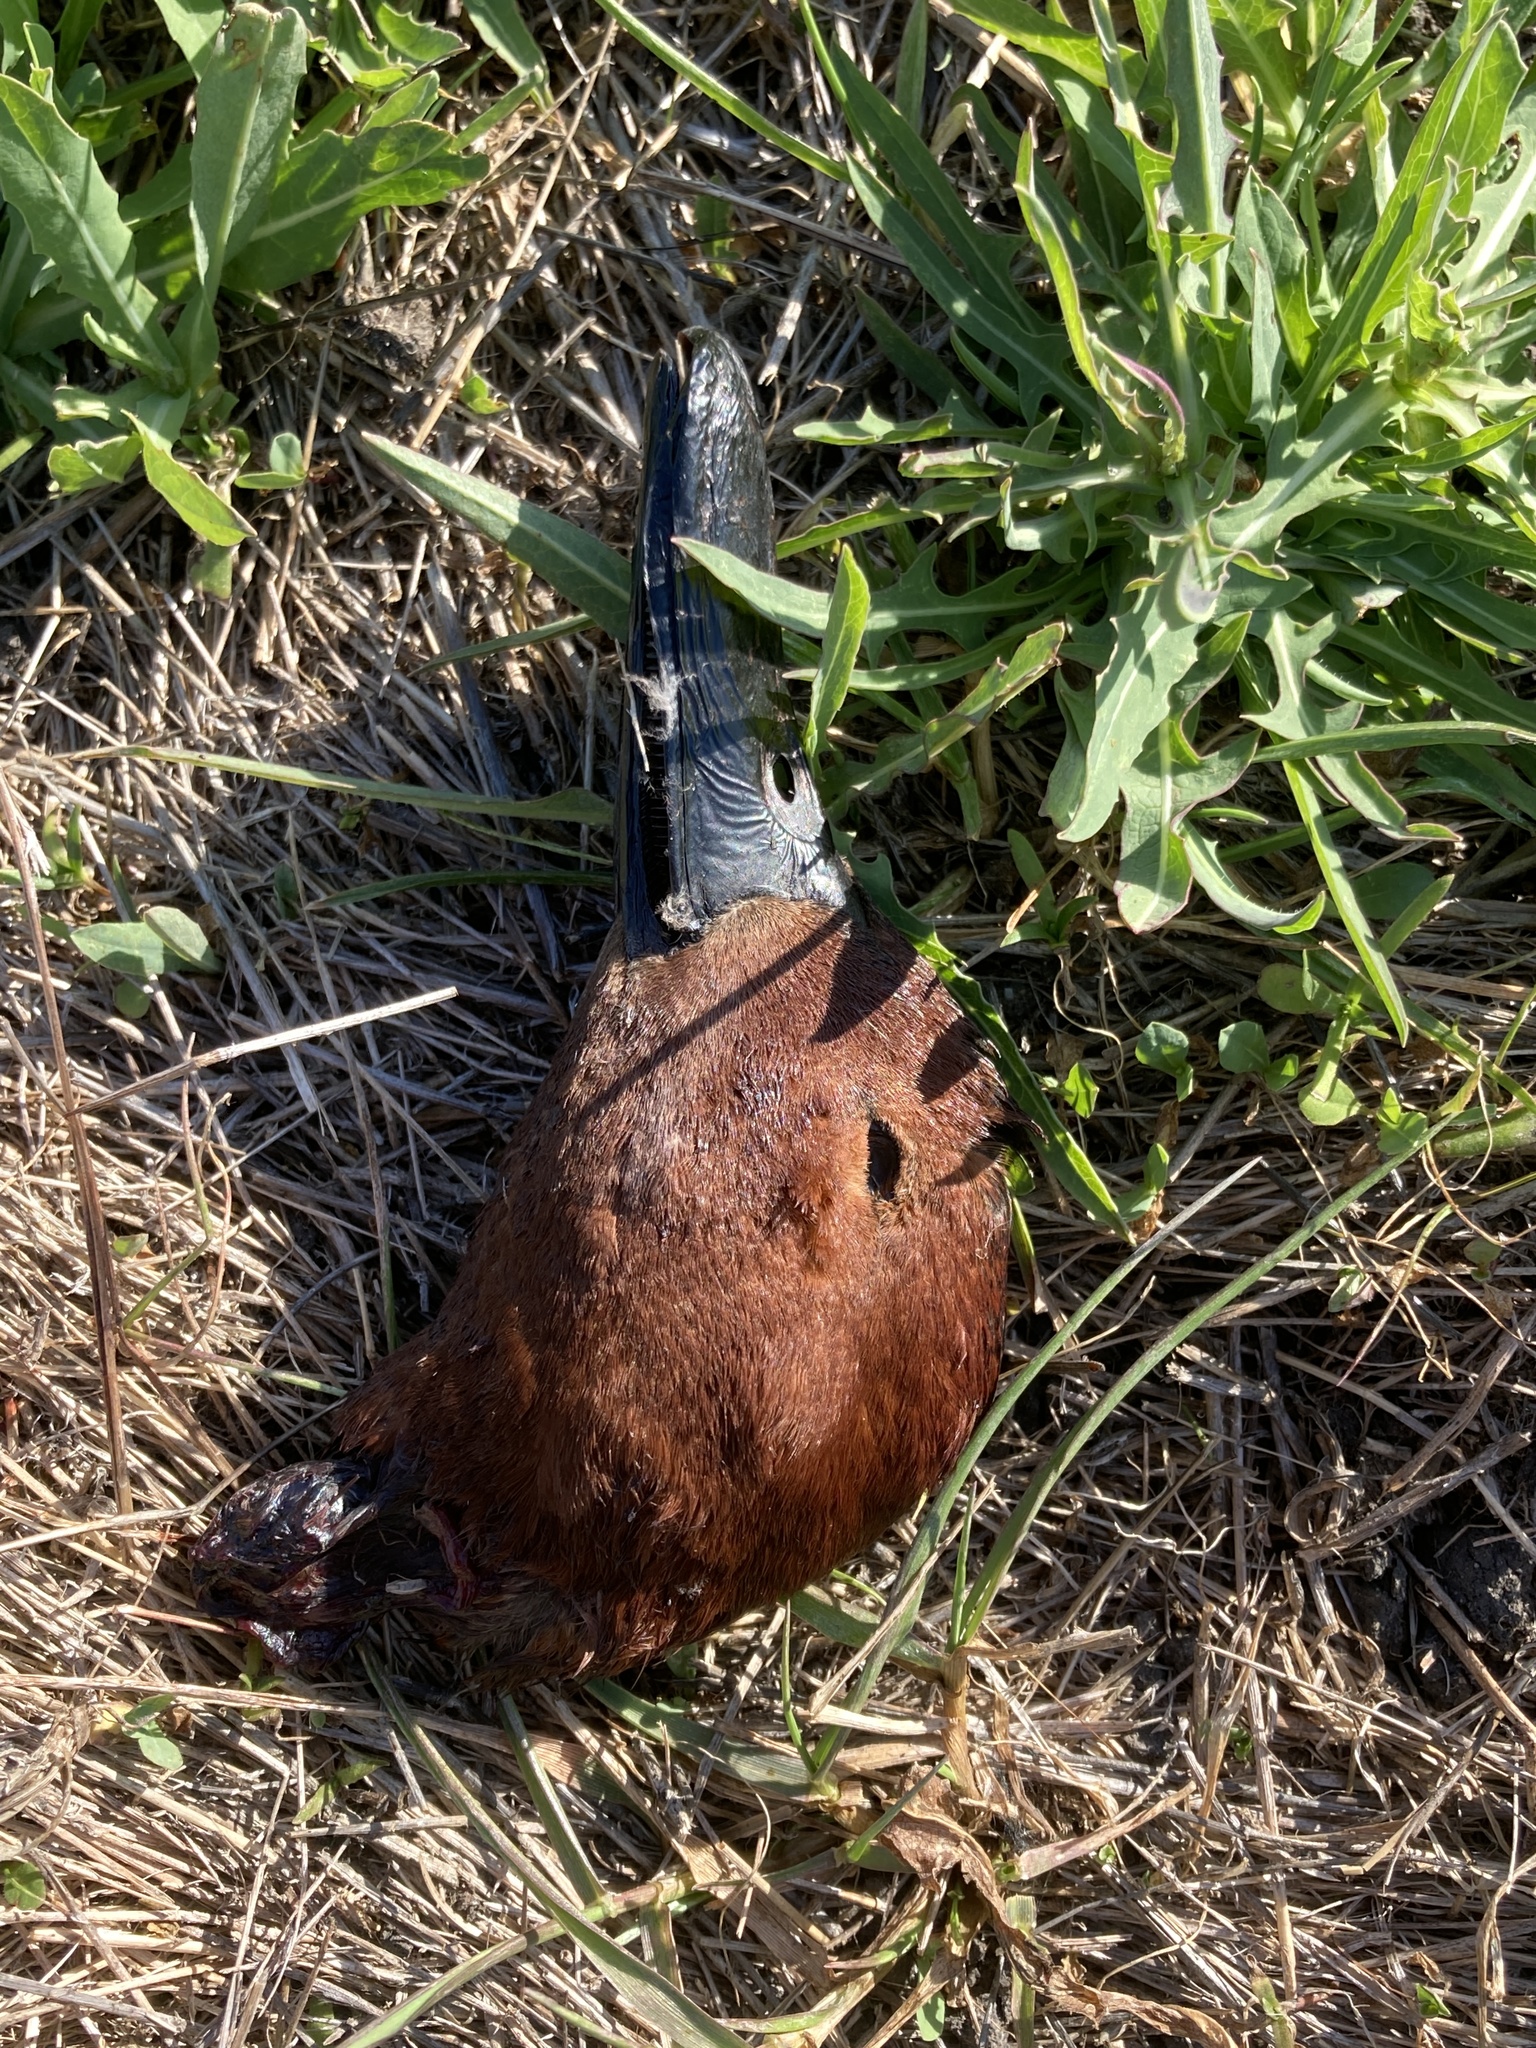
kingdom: Animalia
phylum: Chordata
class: Aves
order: Anseriformes
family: Anatidae
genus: Spatula
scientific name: Spatula cyanoptera
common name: Cinnamon teal
